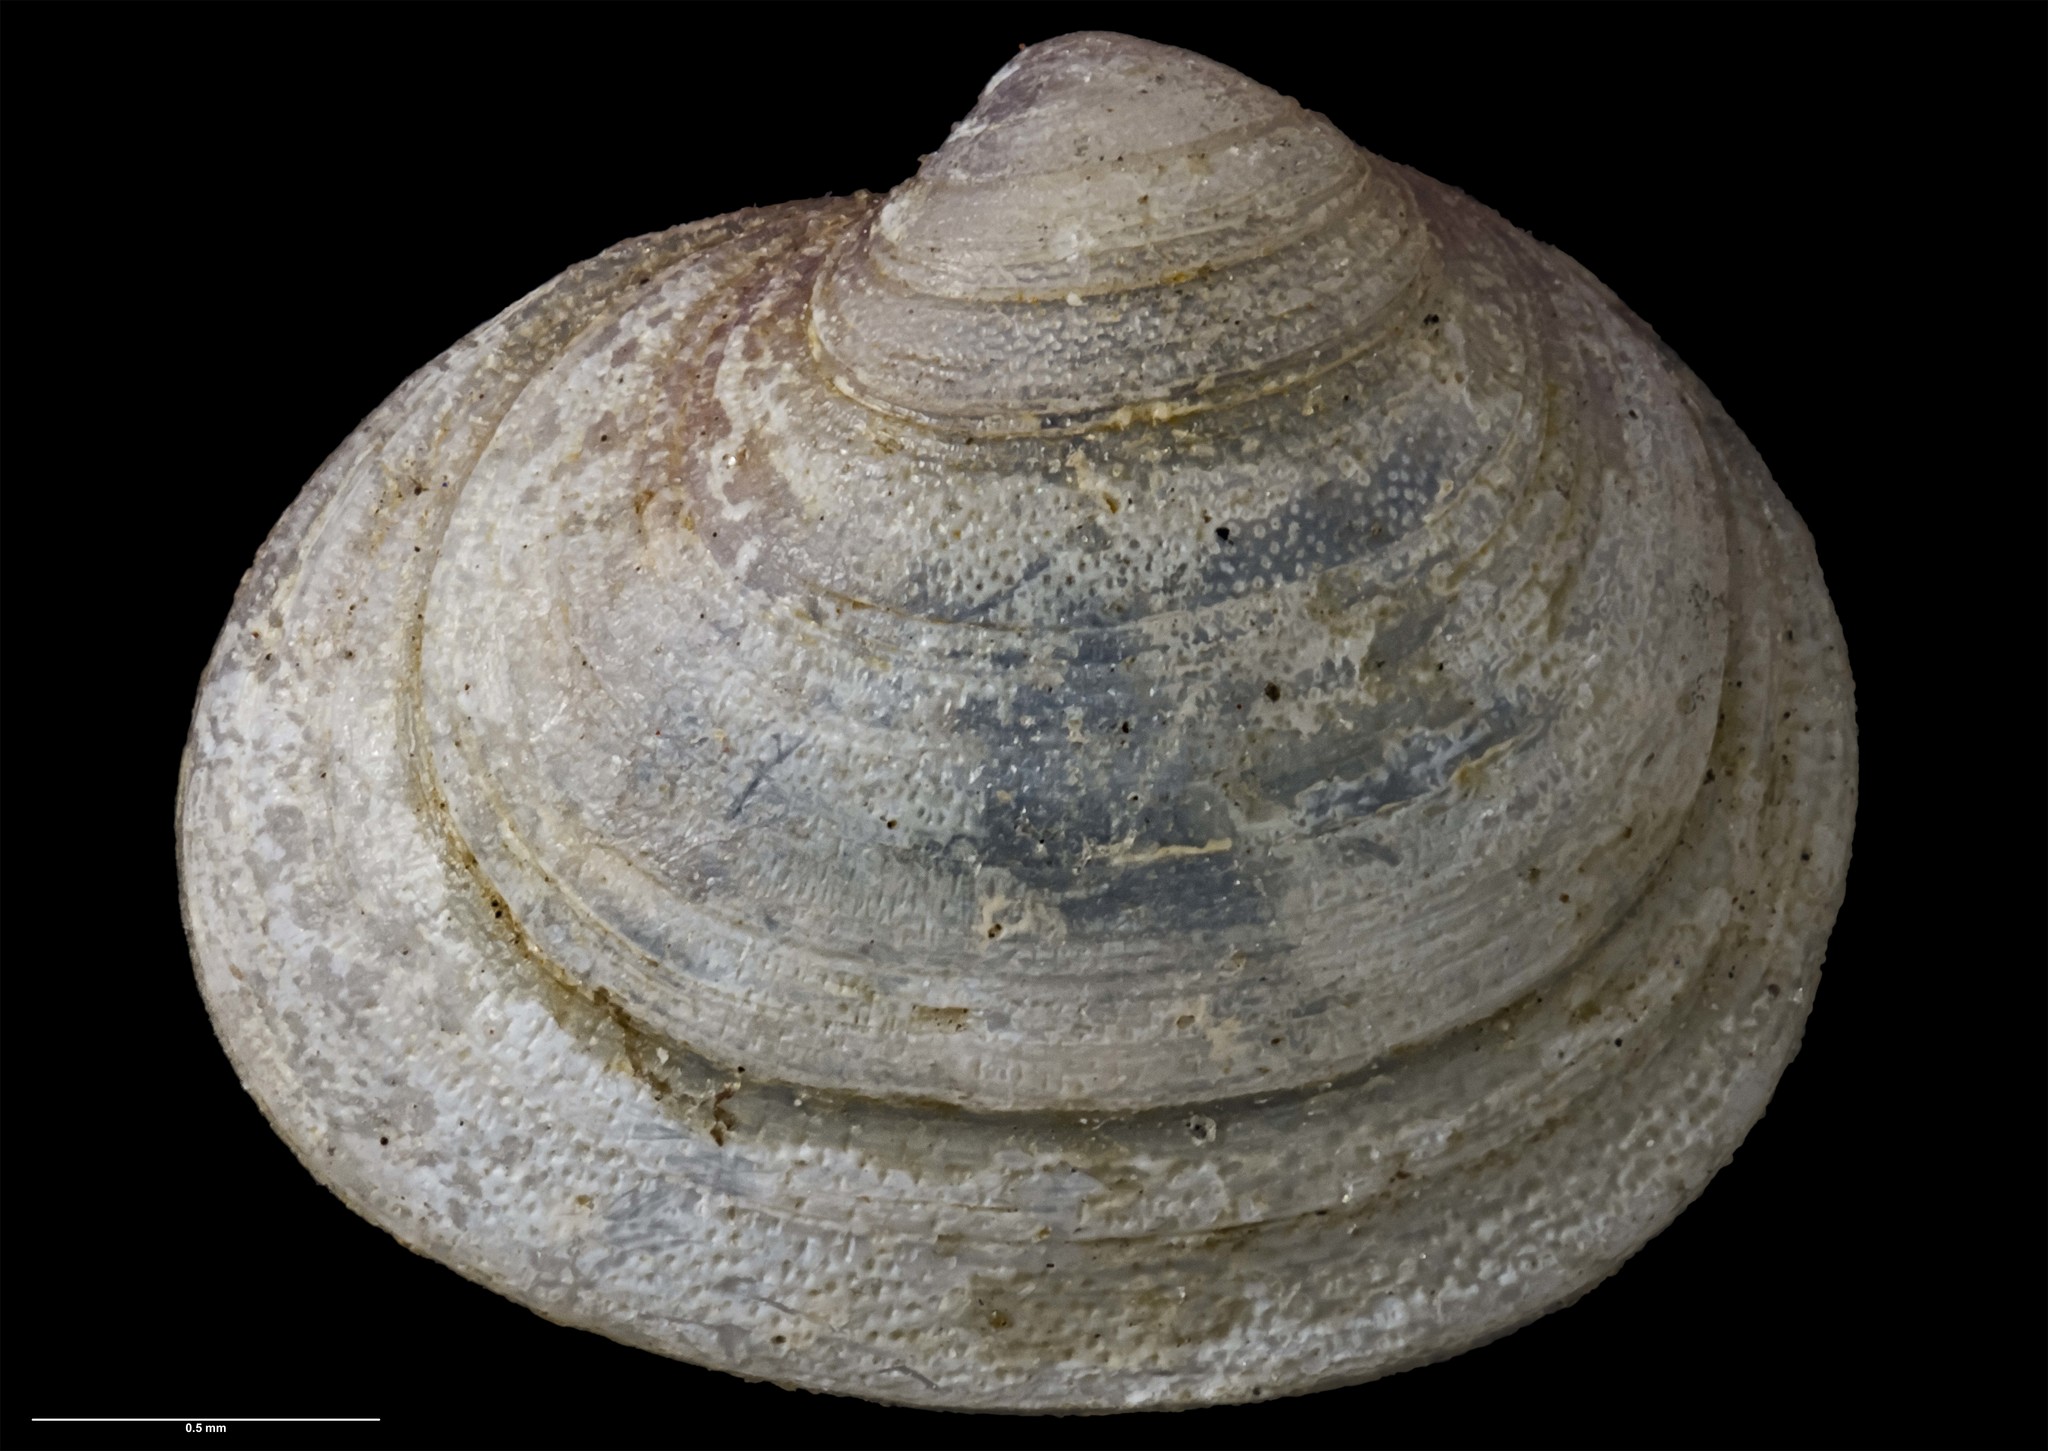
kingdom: Animalia
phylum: Mollusca
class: Bivalvia
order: Galeommatida
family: Lasaeidae
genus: Lasaea
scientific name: Lasaea hinemoa
